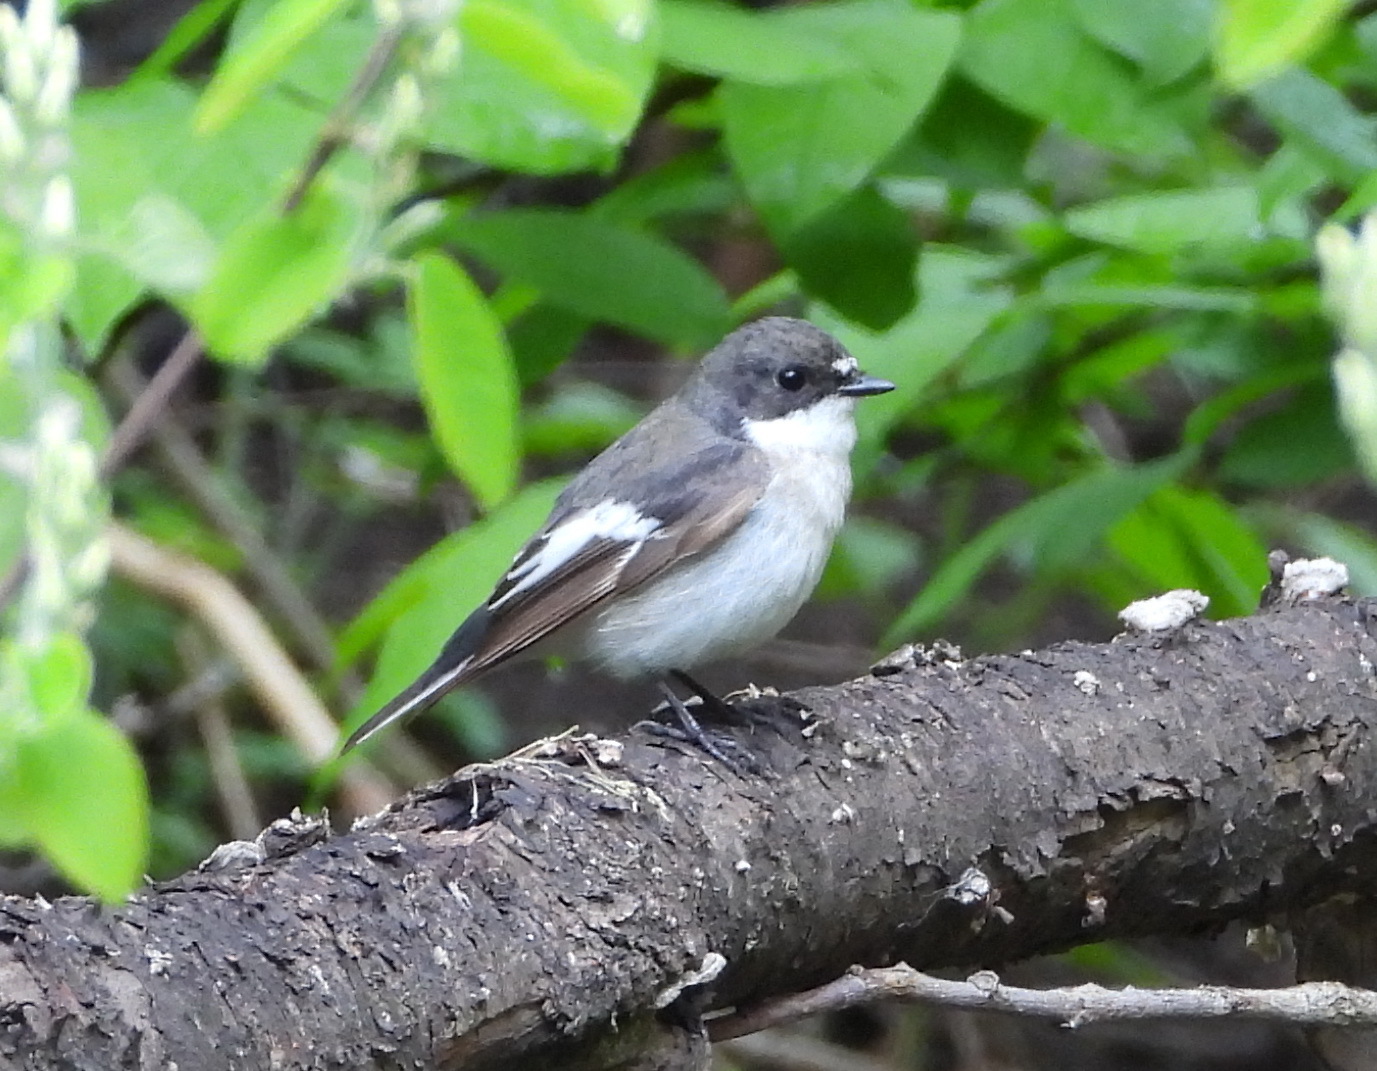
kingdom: Animalia
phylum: Chordata
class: Aves
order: Passeriformes
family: Muscicapidae
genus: Ficedula
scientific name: Ficedula hypoleuca
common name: European pied flycatcher
